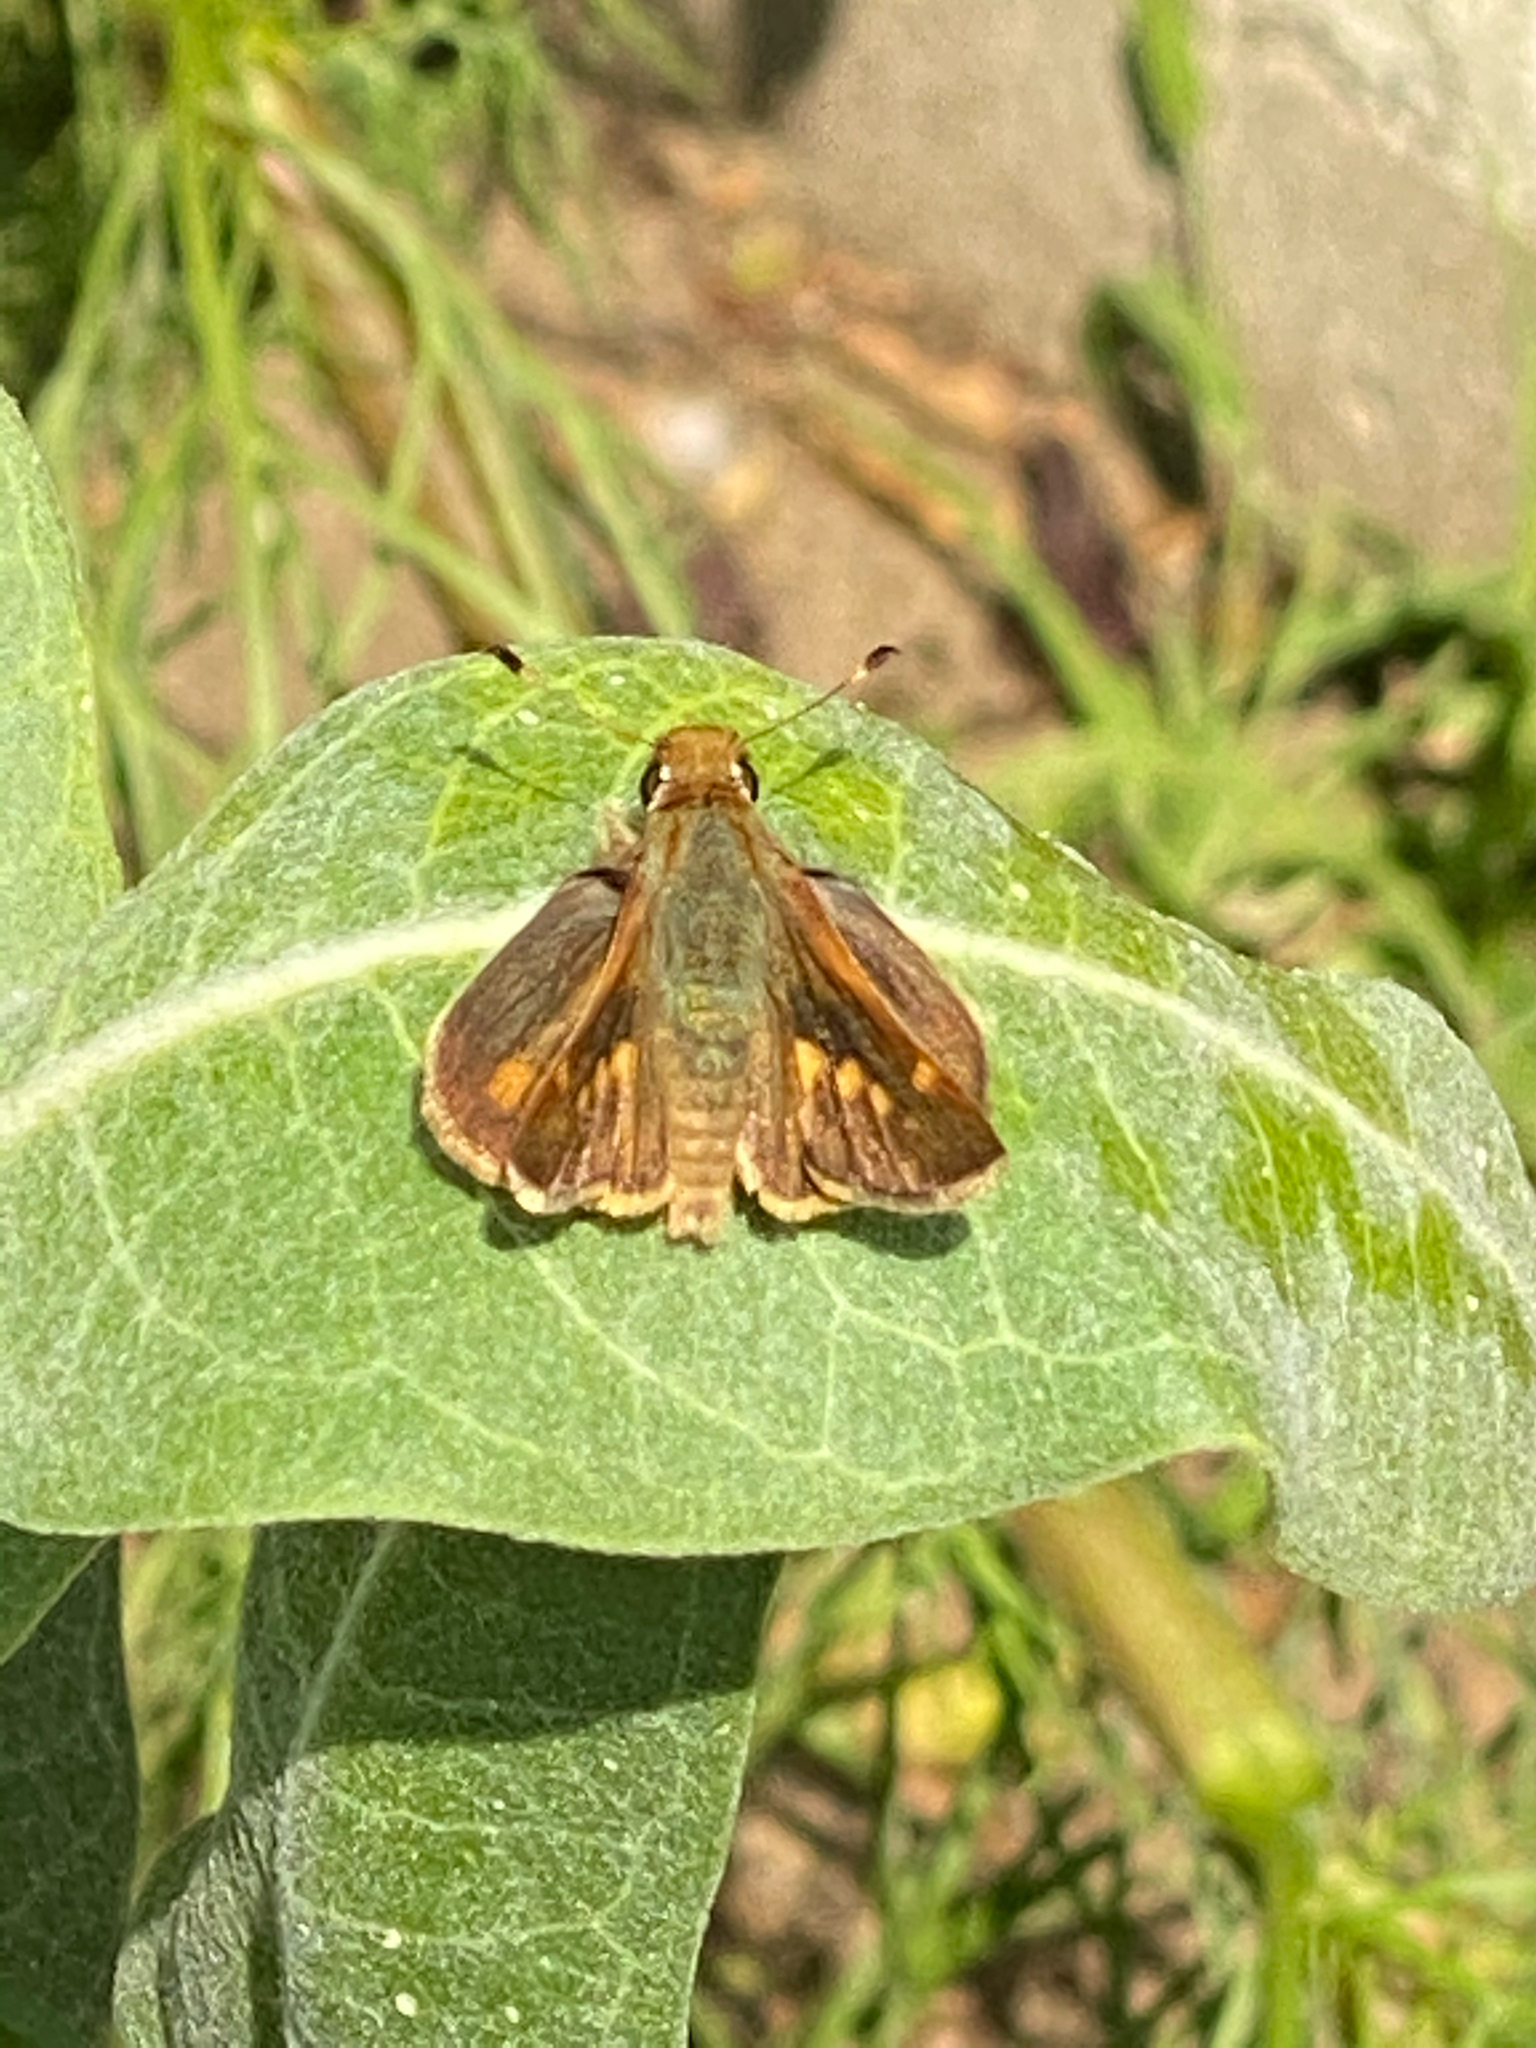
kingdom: Animalia
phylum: Arthropoda
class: Insecta
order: Lepidoptera
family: Hesperiidae
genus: Lon
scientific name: Lon melane
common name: Umber skipper
